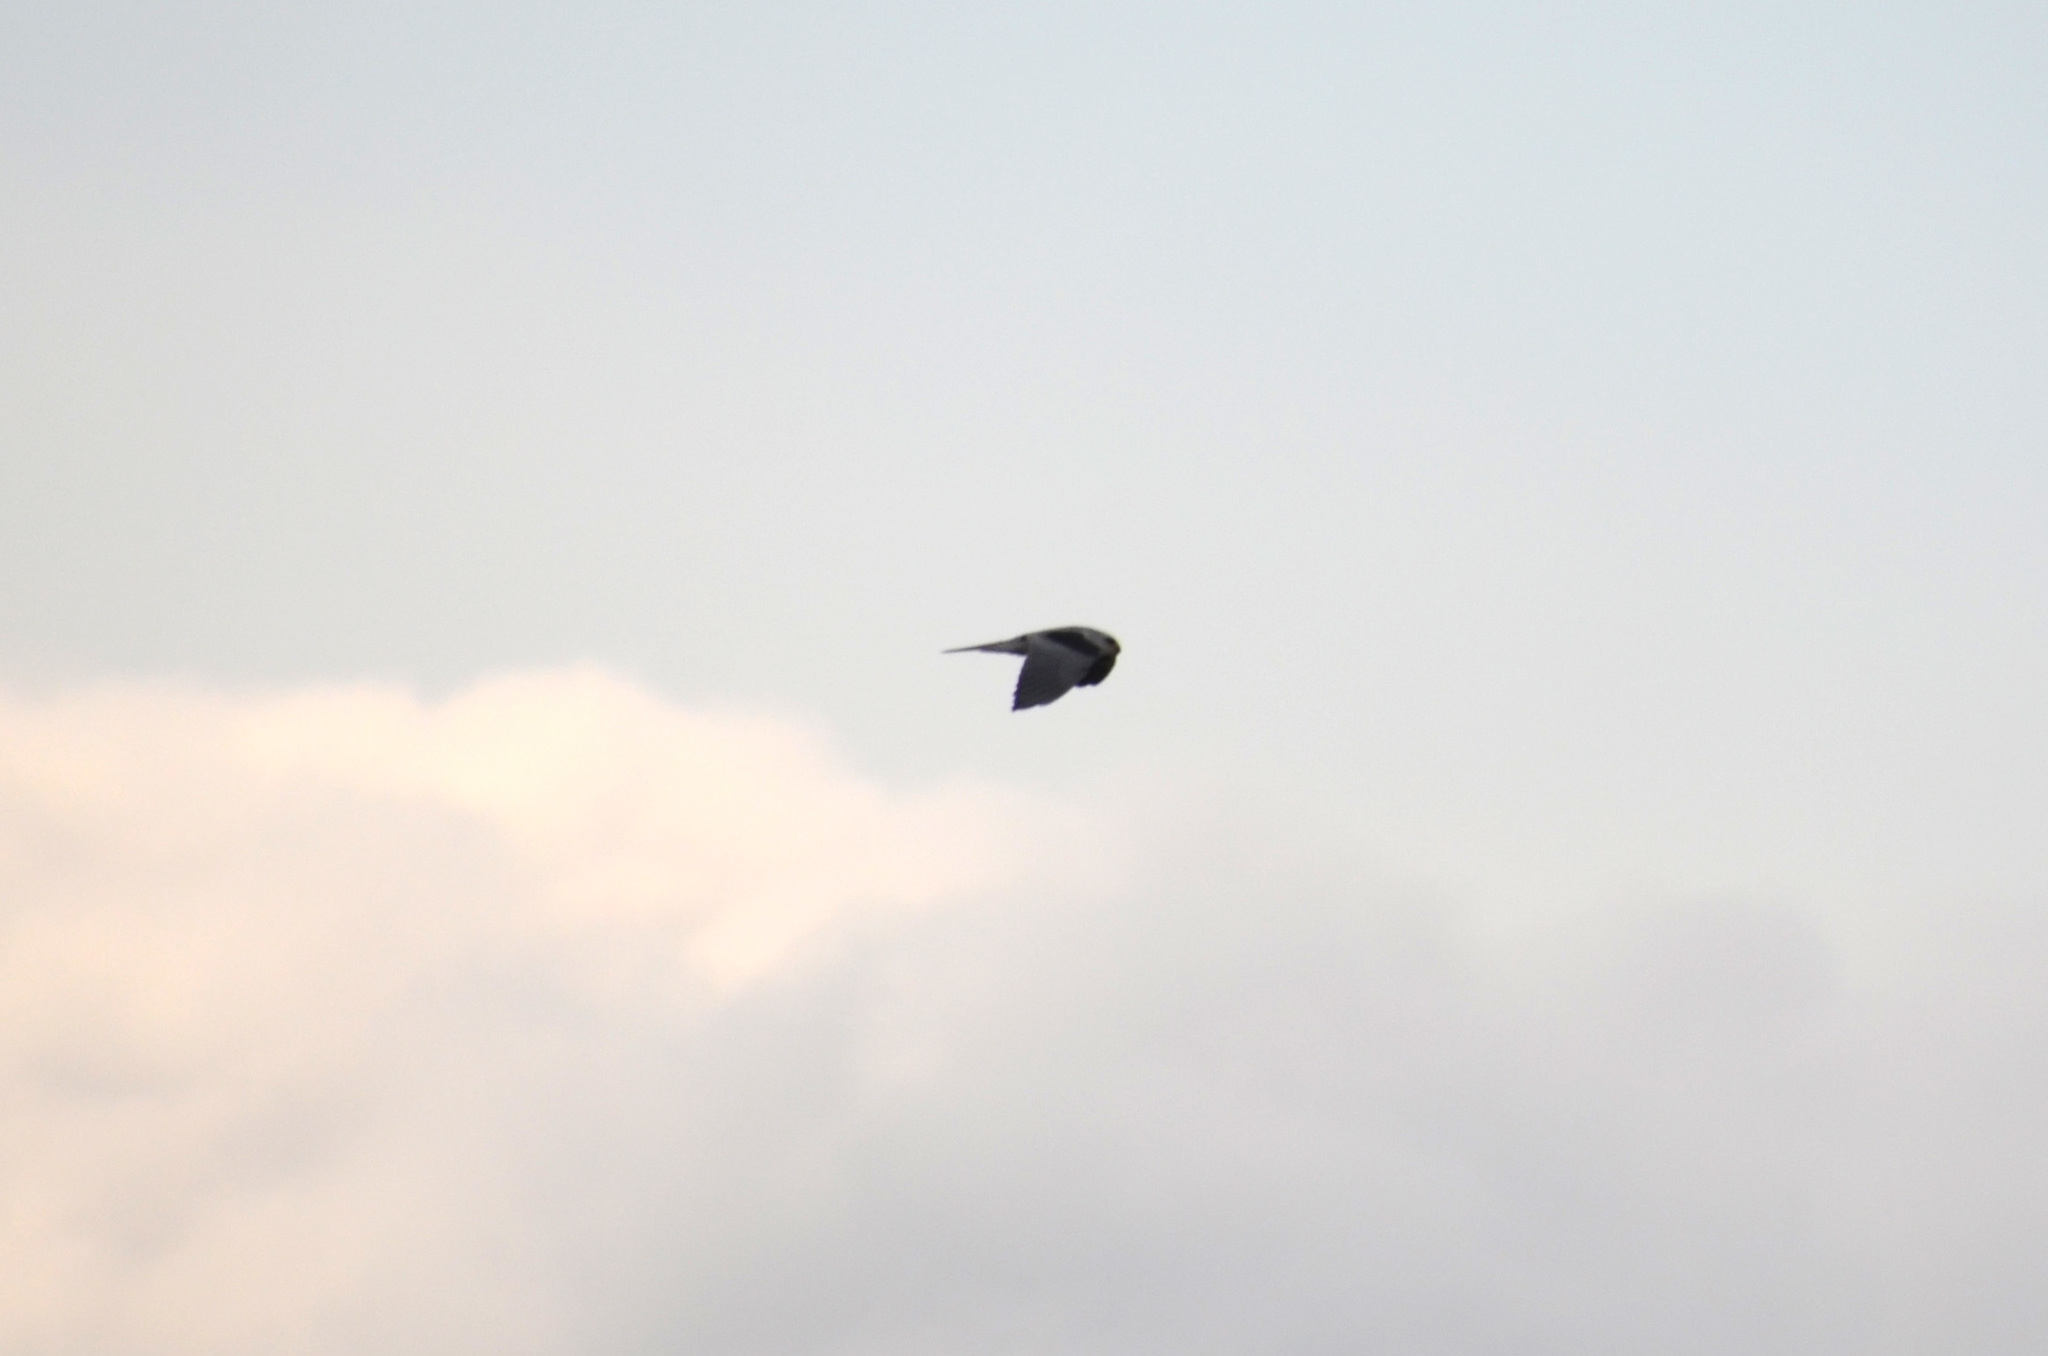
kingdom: Animalia
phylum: Chordata
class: Aves
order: Accipitriformes
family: Accipitridae
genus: Elanus
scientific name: Elanus leucurus
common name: White-tailed kite
